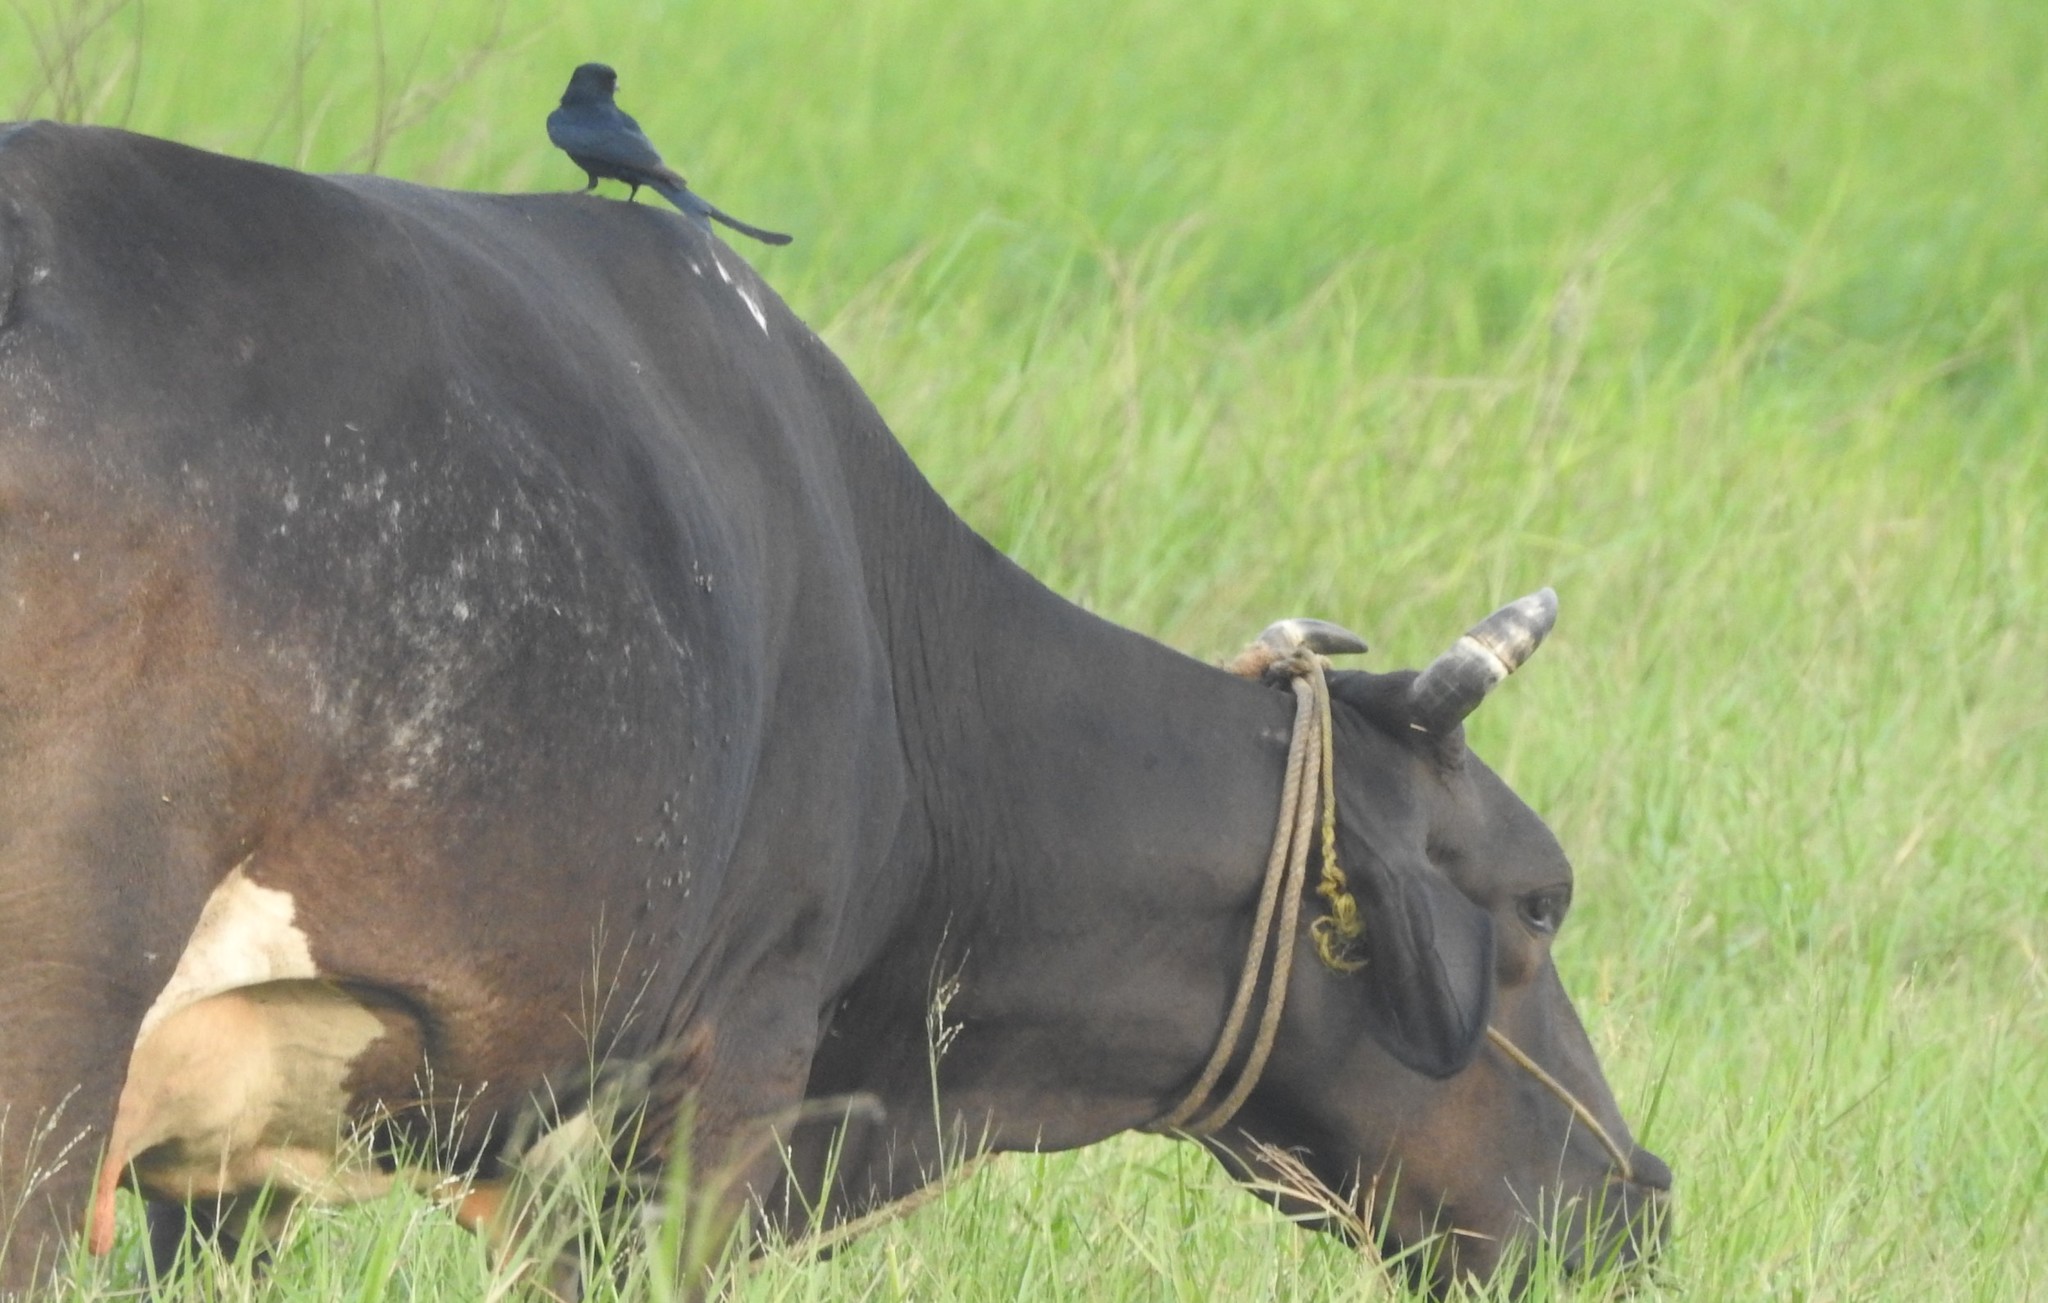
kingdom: Animalia
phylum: Chordata
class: Aves
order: Passeriformes
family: Dicruridae
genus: Dicrurus
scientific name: Dicrurus macrocercus
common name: Black drongo
